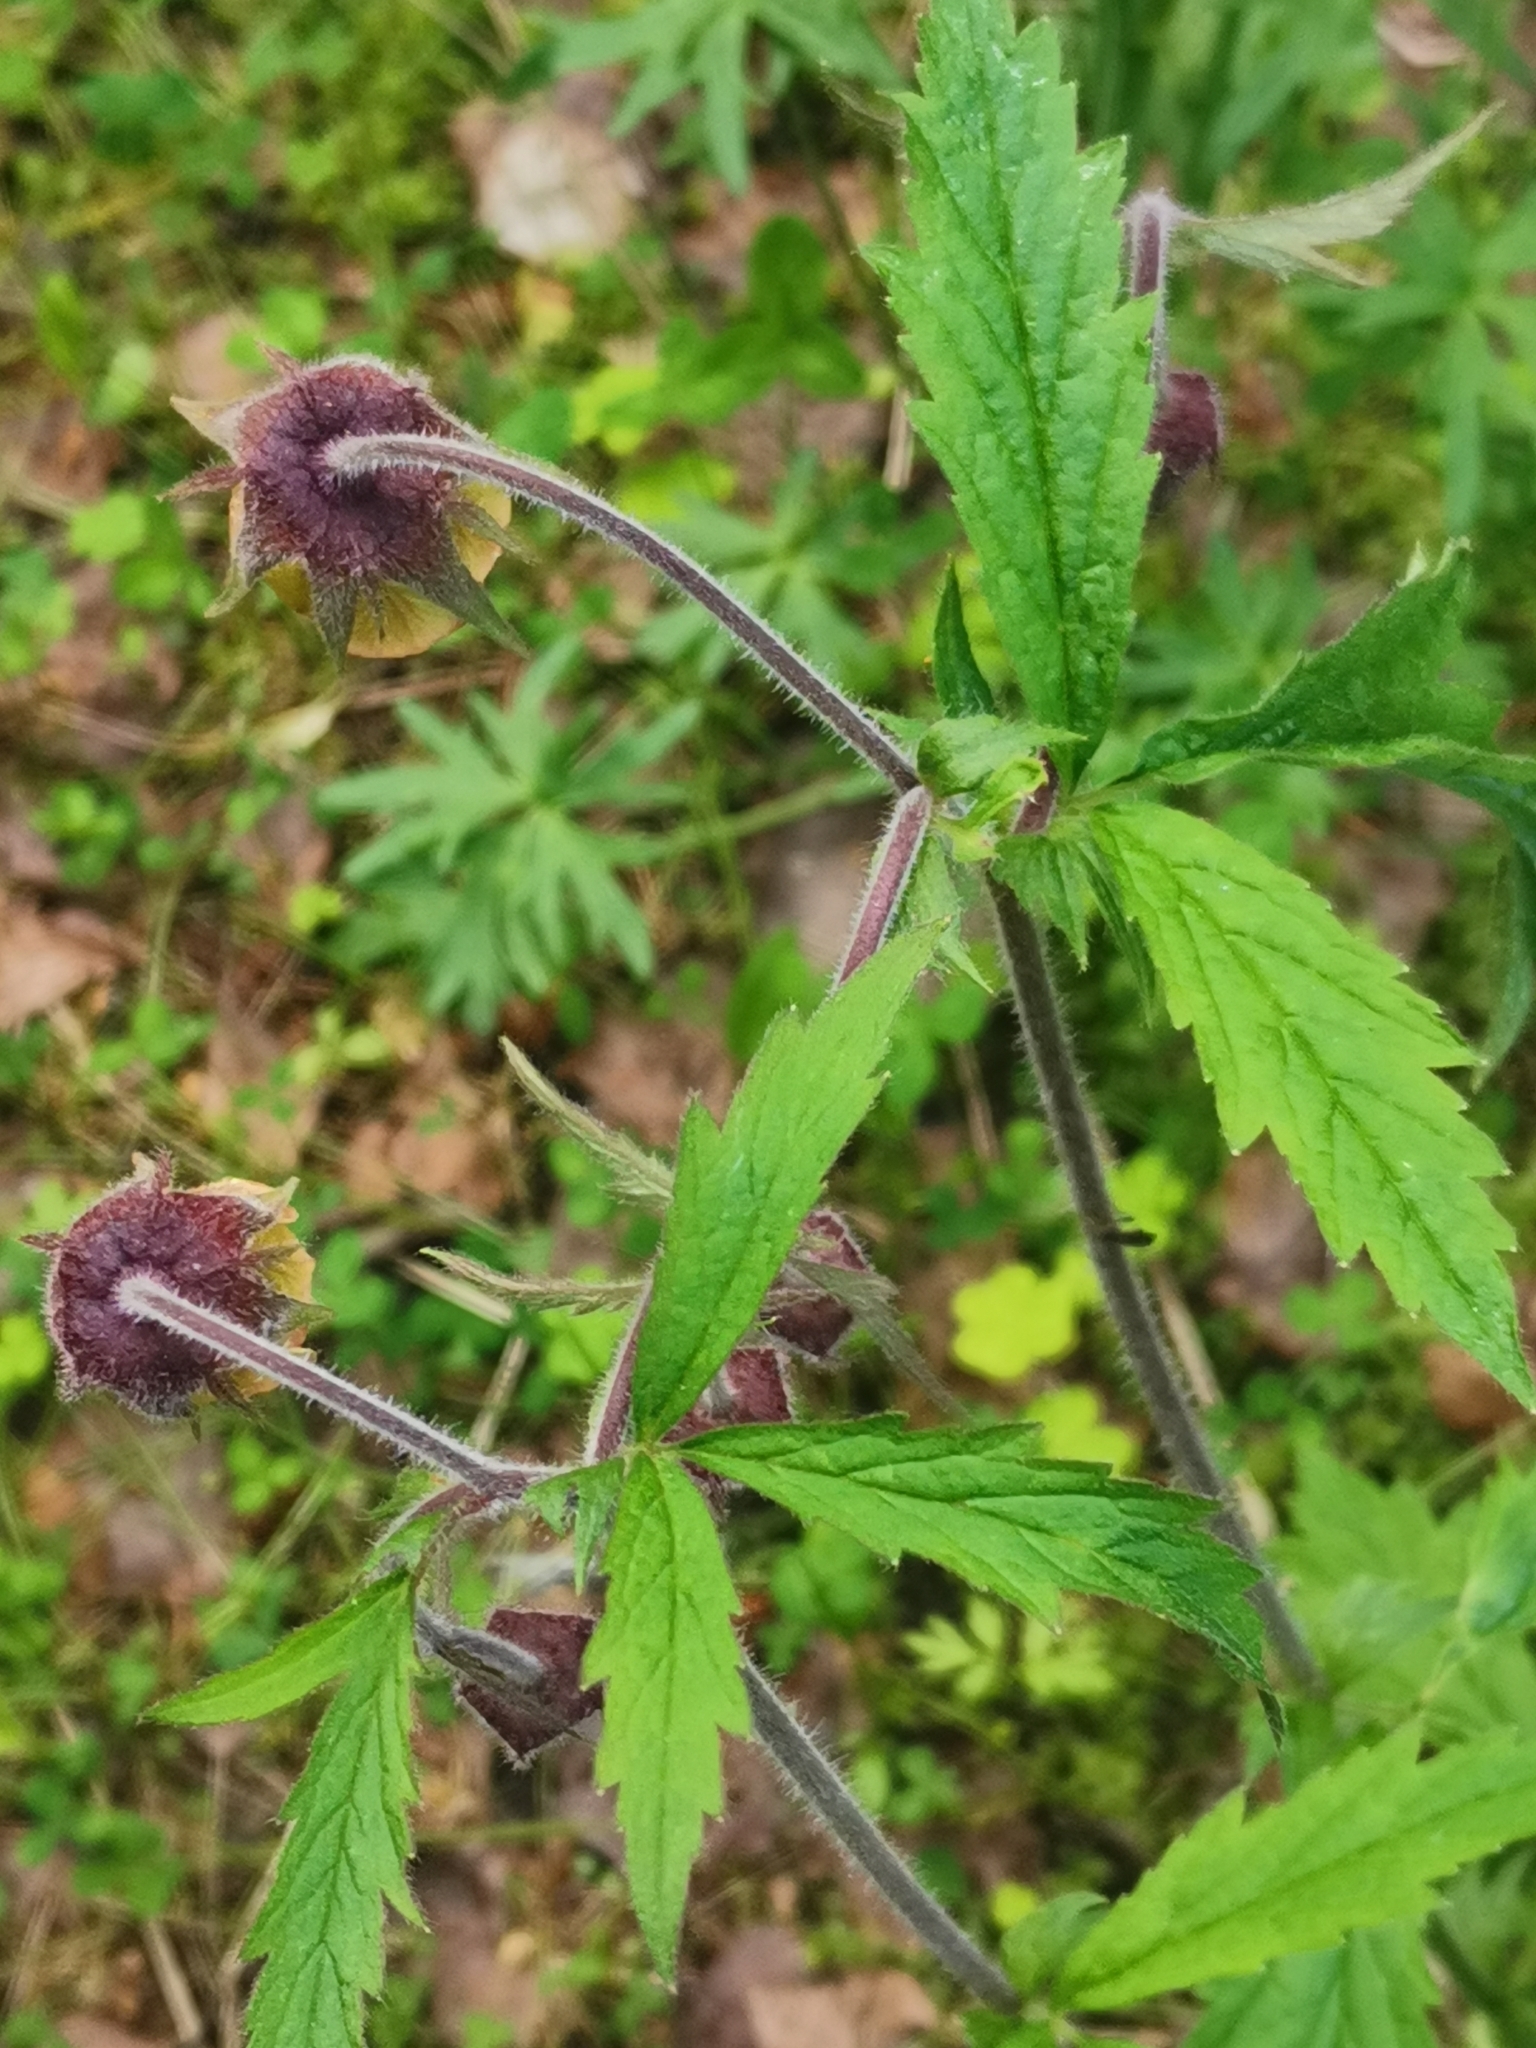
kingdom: Plantae
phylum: Tracheophyta
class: Magnoliopsida
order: Rosales
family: Rosaceae
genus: Geum
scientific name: Geum rivale
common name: Water avens
